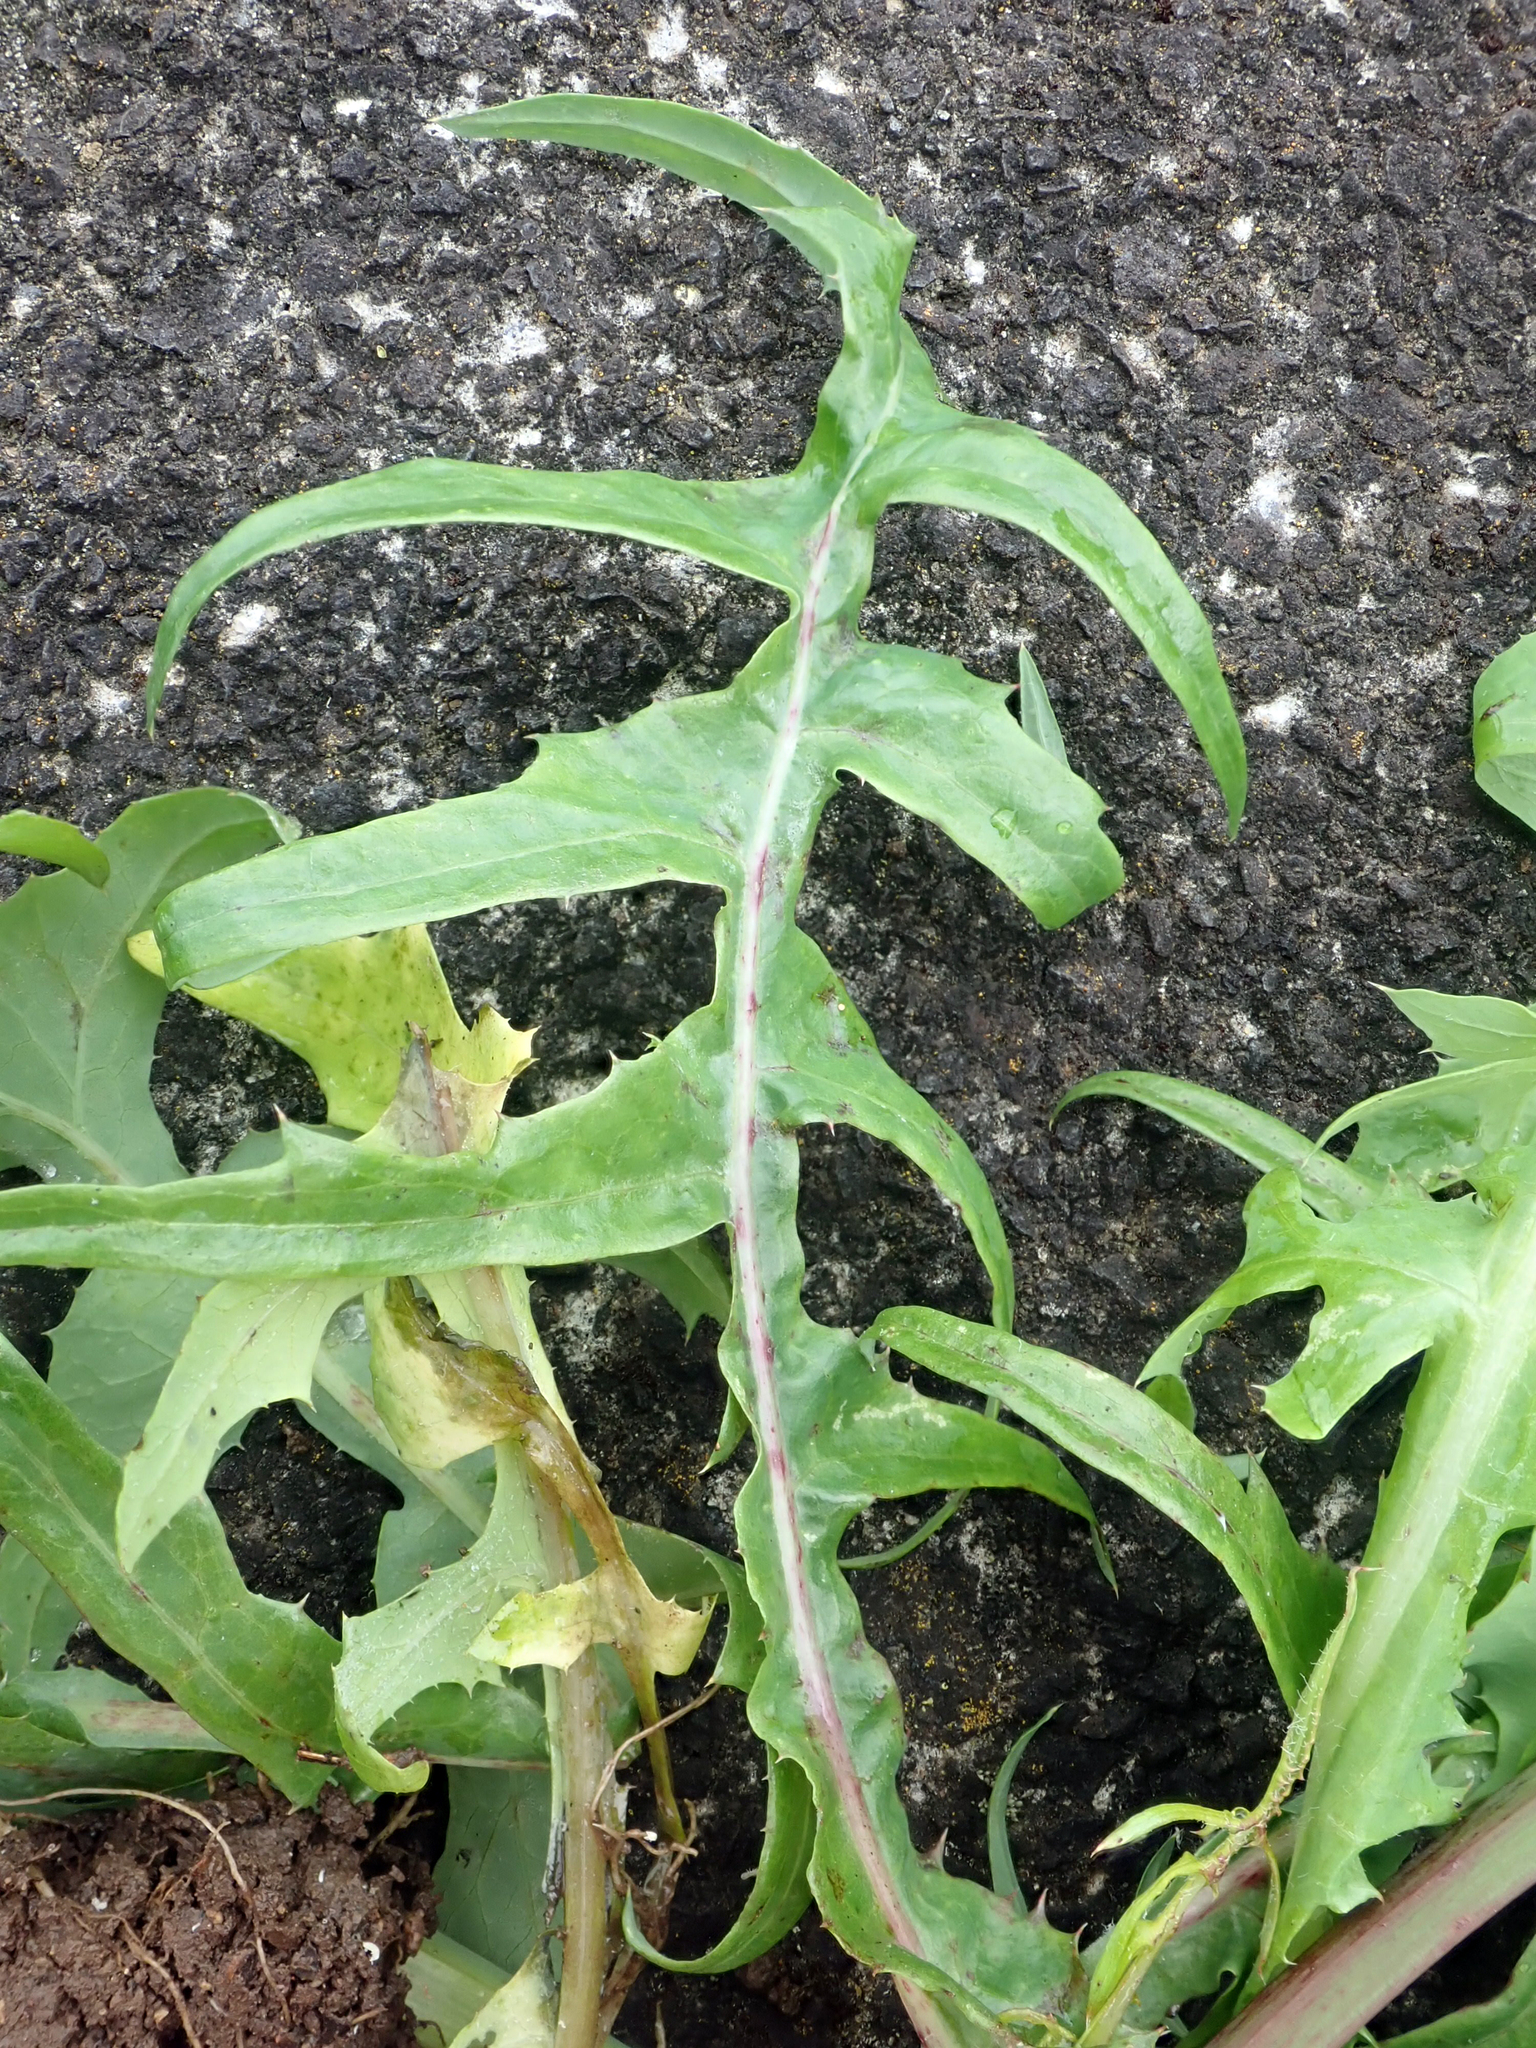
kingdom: Plantae
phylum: Tracheophyta
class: Magnoliopsida
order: Asterales
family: Asteraceae
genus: Sonchus
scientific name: Sonchus oleraceus
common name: Common sowthistle
